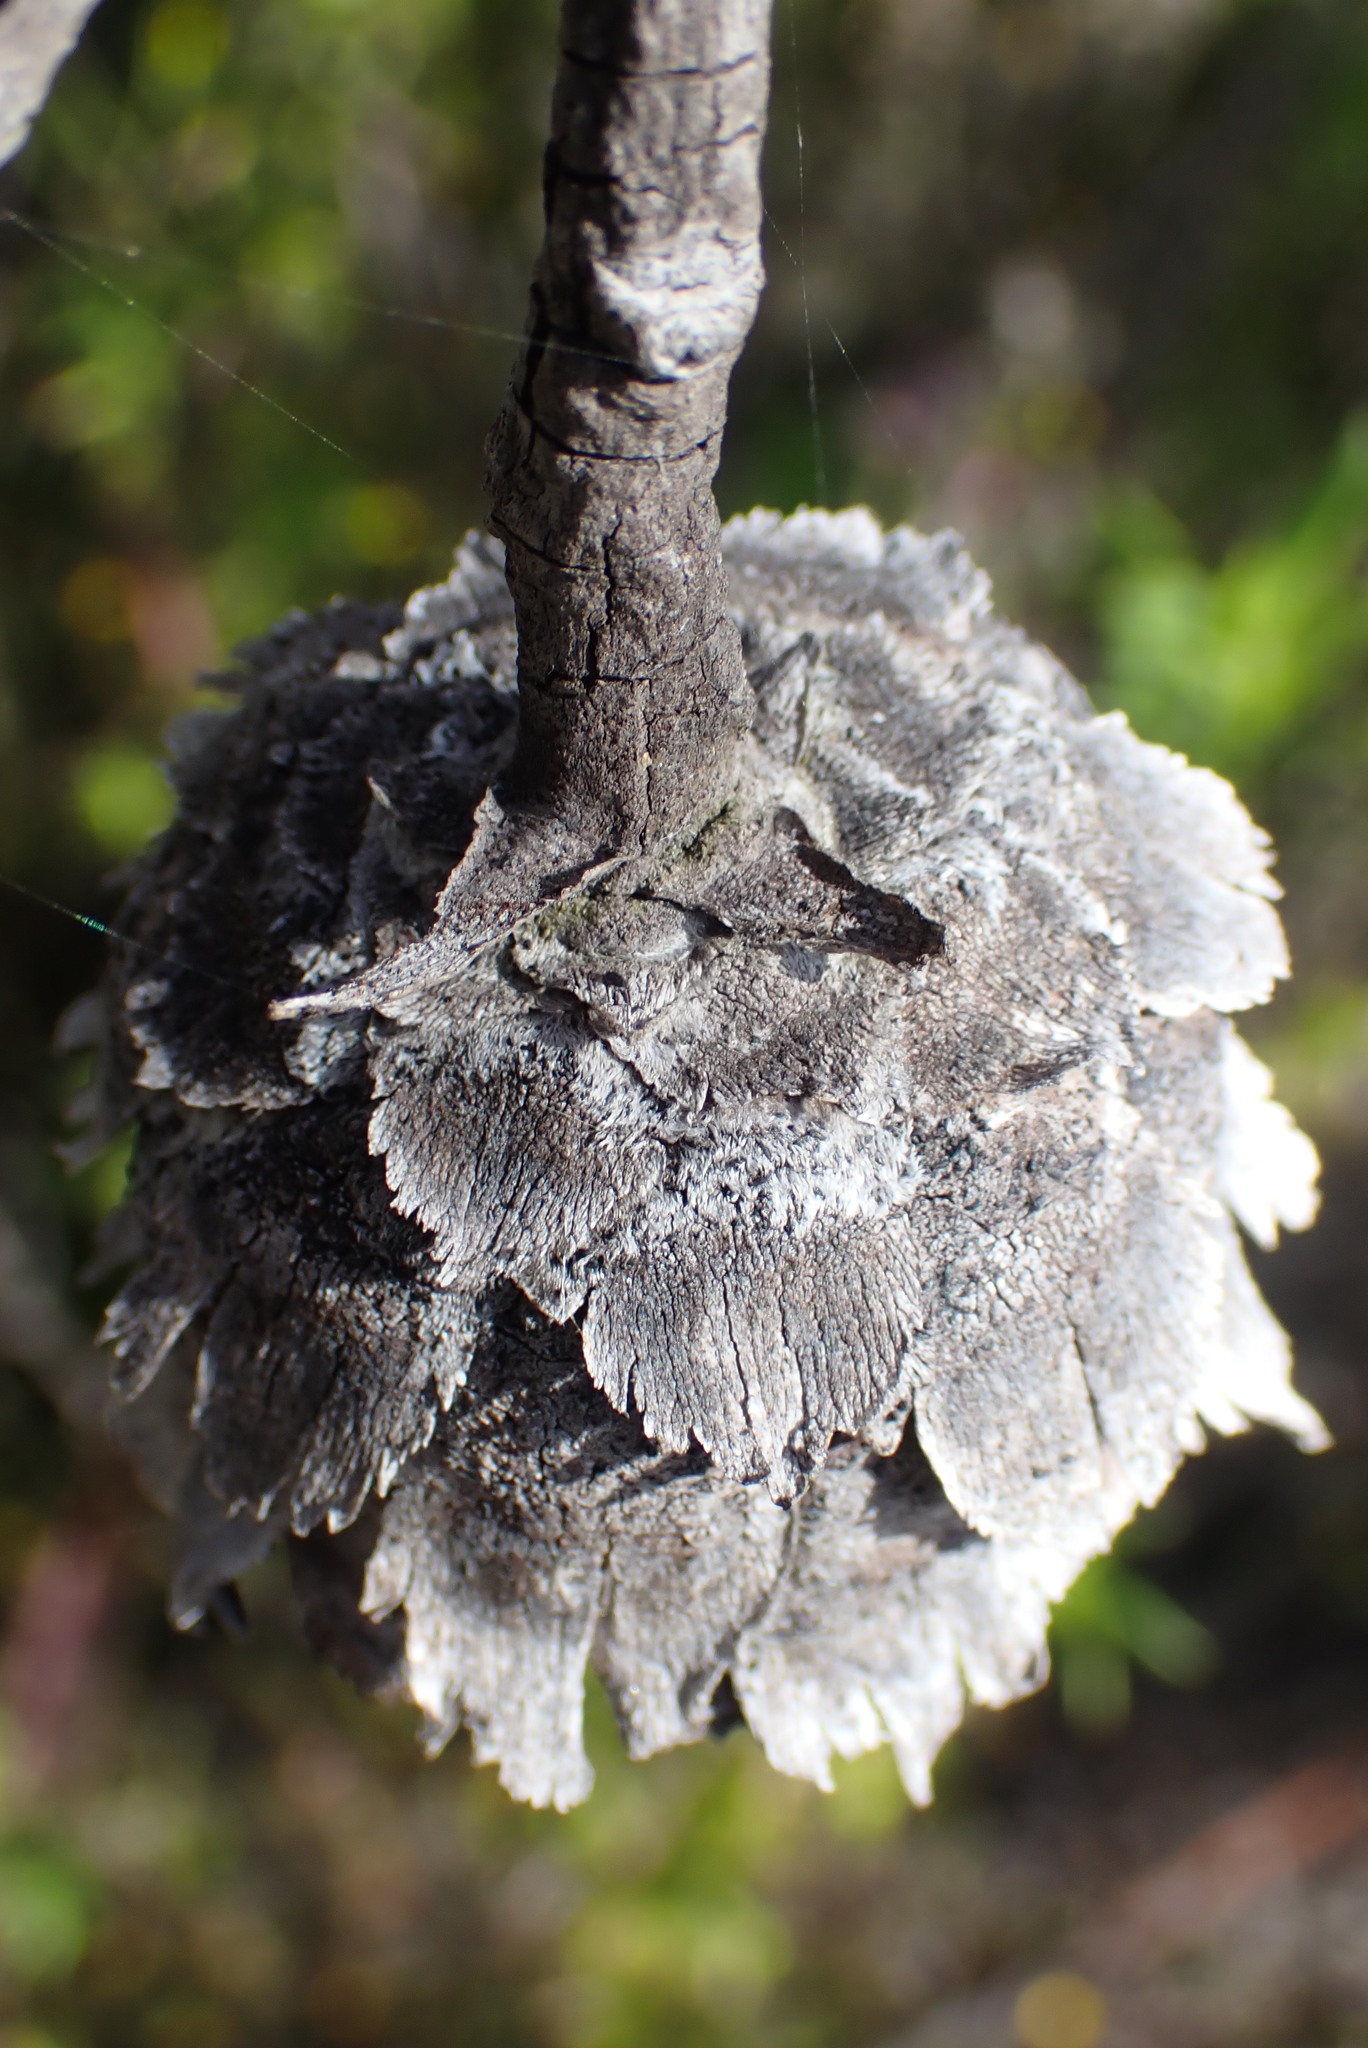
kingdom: Plantae
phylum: Tracheophyta
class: Magnoliopsida
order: Proteales
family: Proteaceae
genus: Protea
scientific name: Protea aurea
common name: Shuttlecock sugarbush
